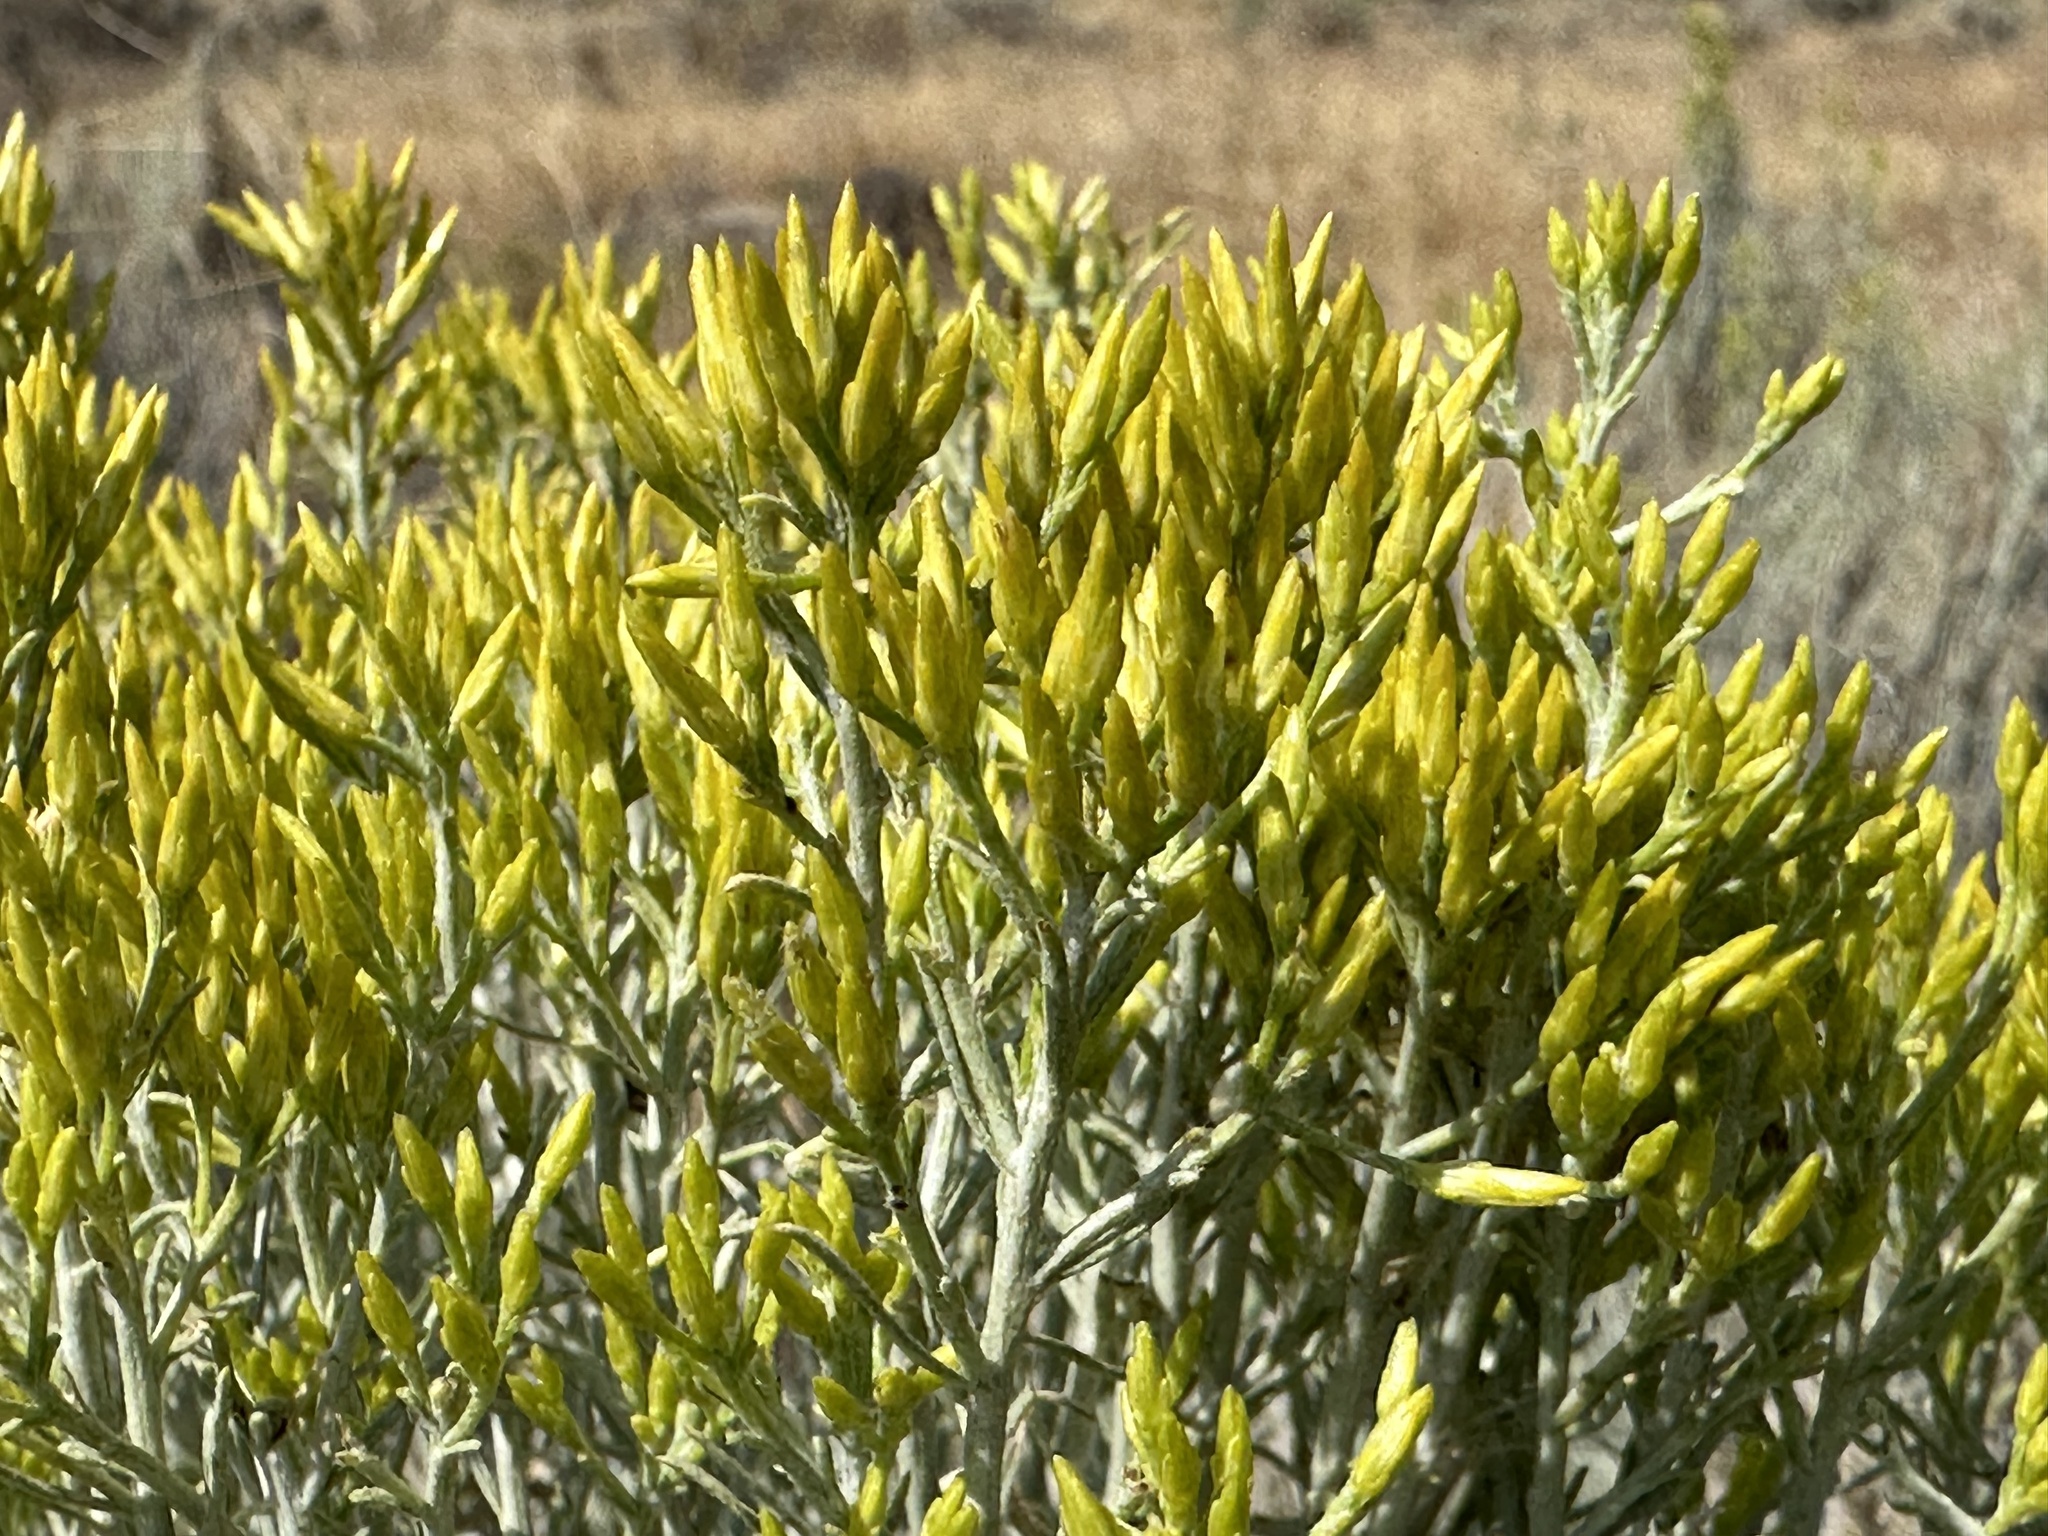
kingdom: Plantae
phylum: Tracheophyta
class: Magnoliopsida
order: Asterales
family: Asteraceae
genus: Ericameria
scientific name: Ericameria nauseosa
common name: Rubber rabbitbrush
